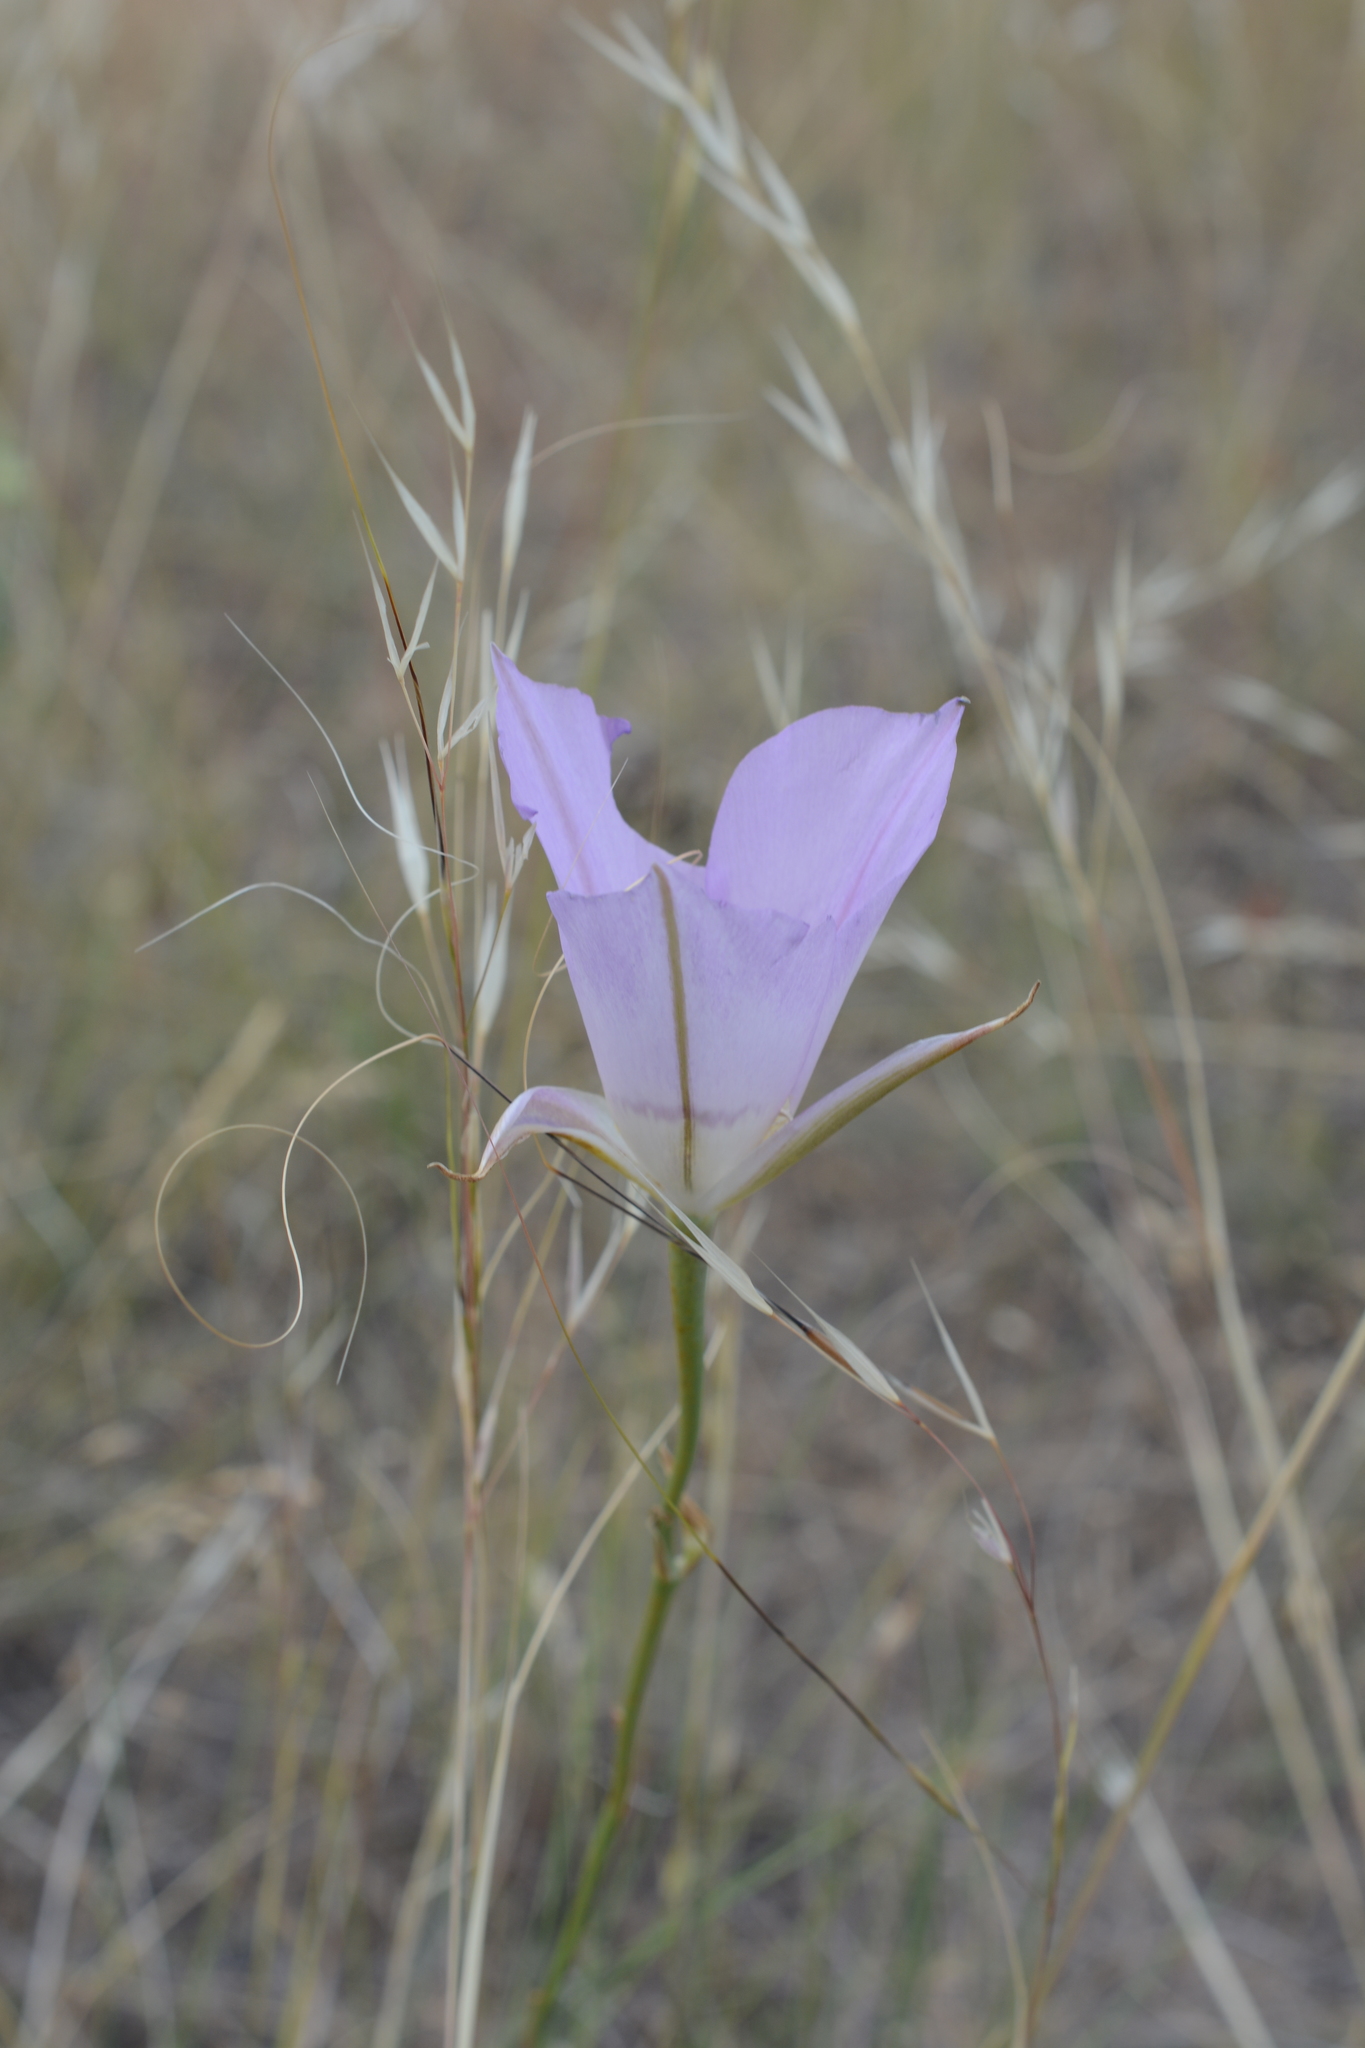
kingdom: Plantae
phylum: Tracheophyta
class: Liliopsida
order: Liliales
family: Liliaceae
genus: Calochortus
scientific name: Calochortus macrocarpus
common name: Green-band mariposa lily
